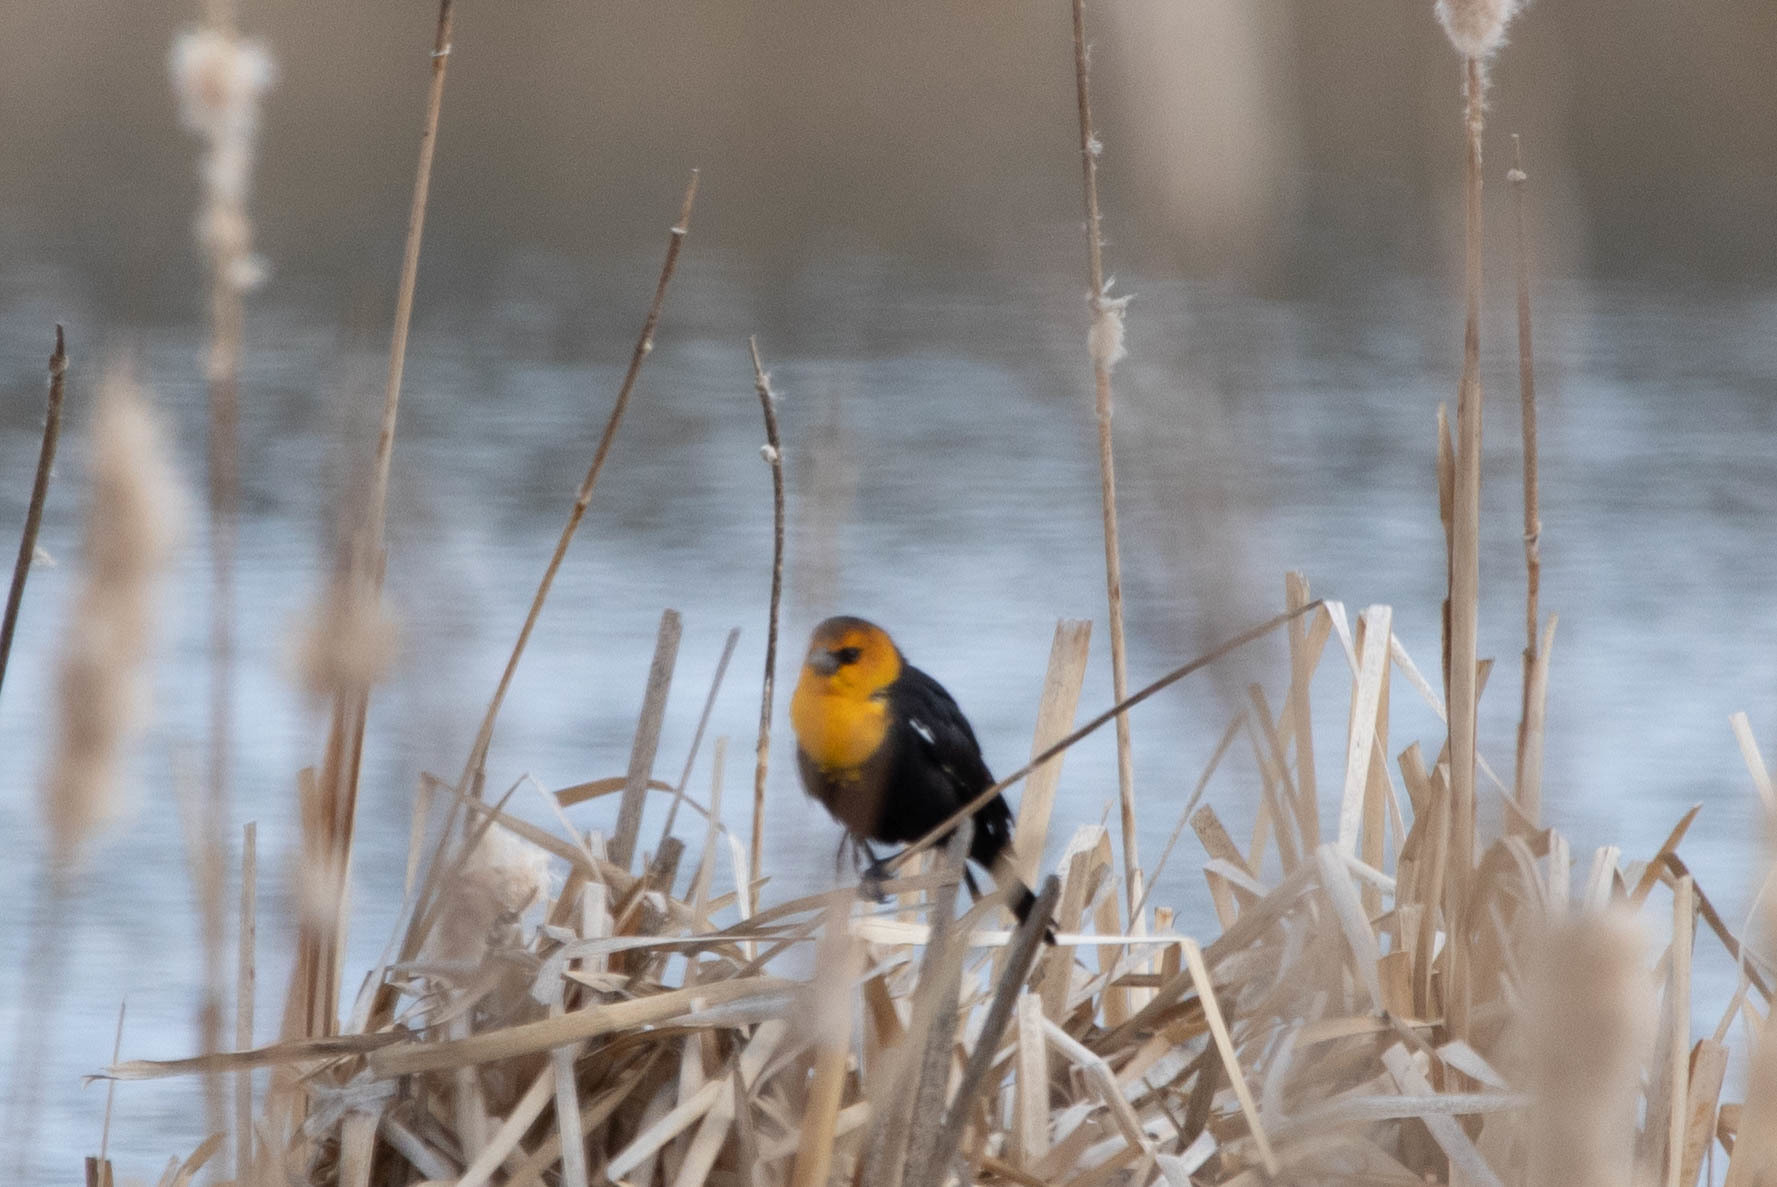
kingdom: Animalia
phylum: Chordata
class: Aves
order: Passeriformes
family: Icteridae
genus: Xanthocephalus
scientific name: Xanthocephalus xanthocephalus
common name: Yellow-headed blackbird
